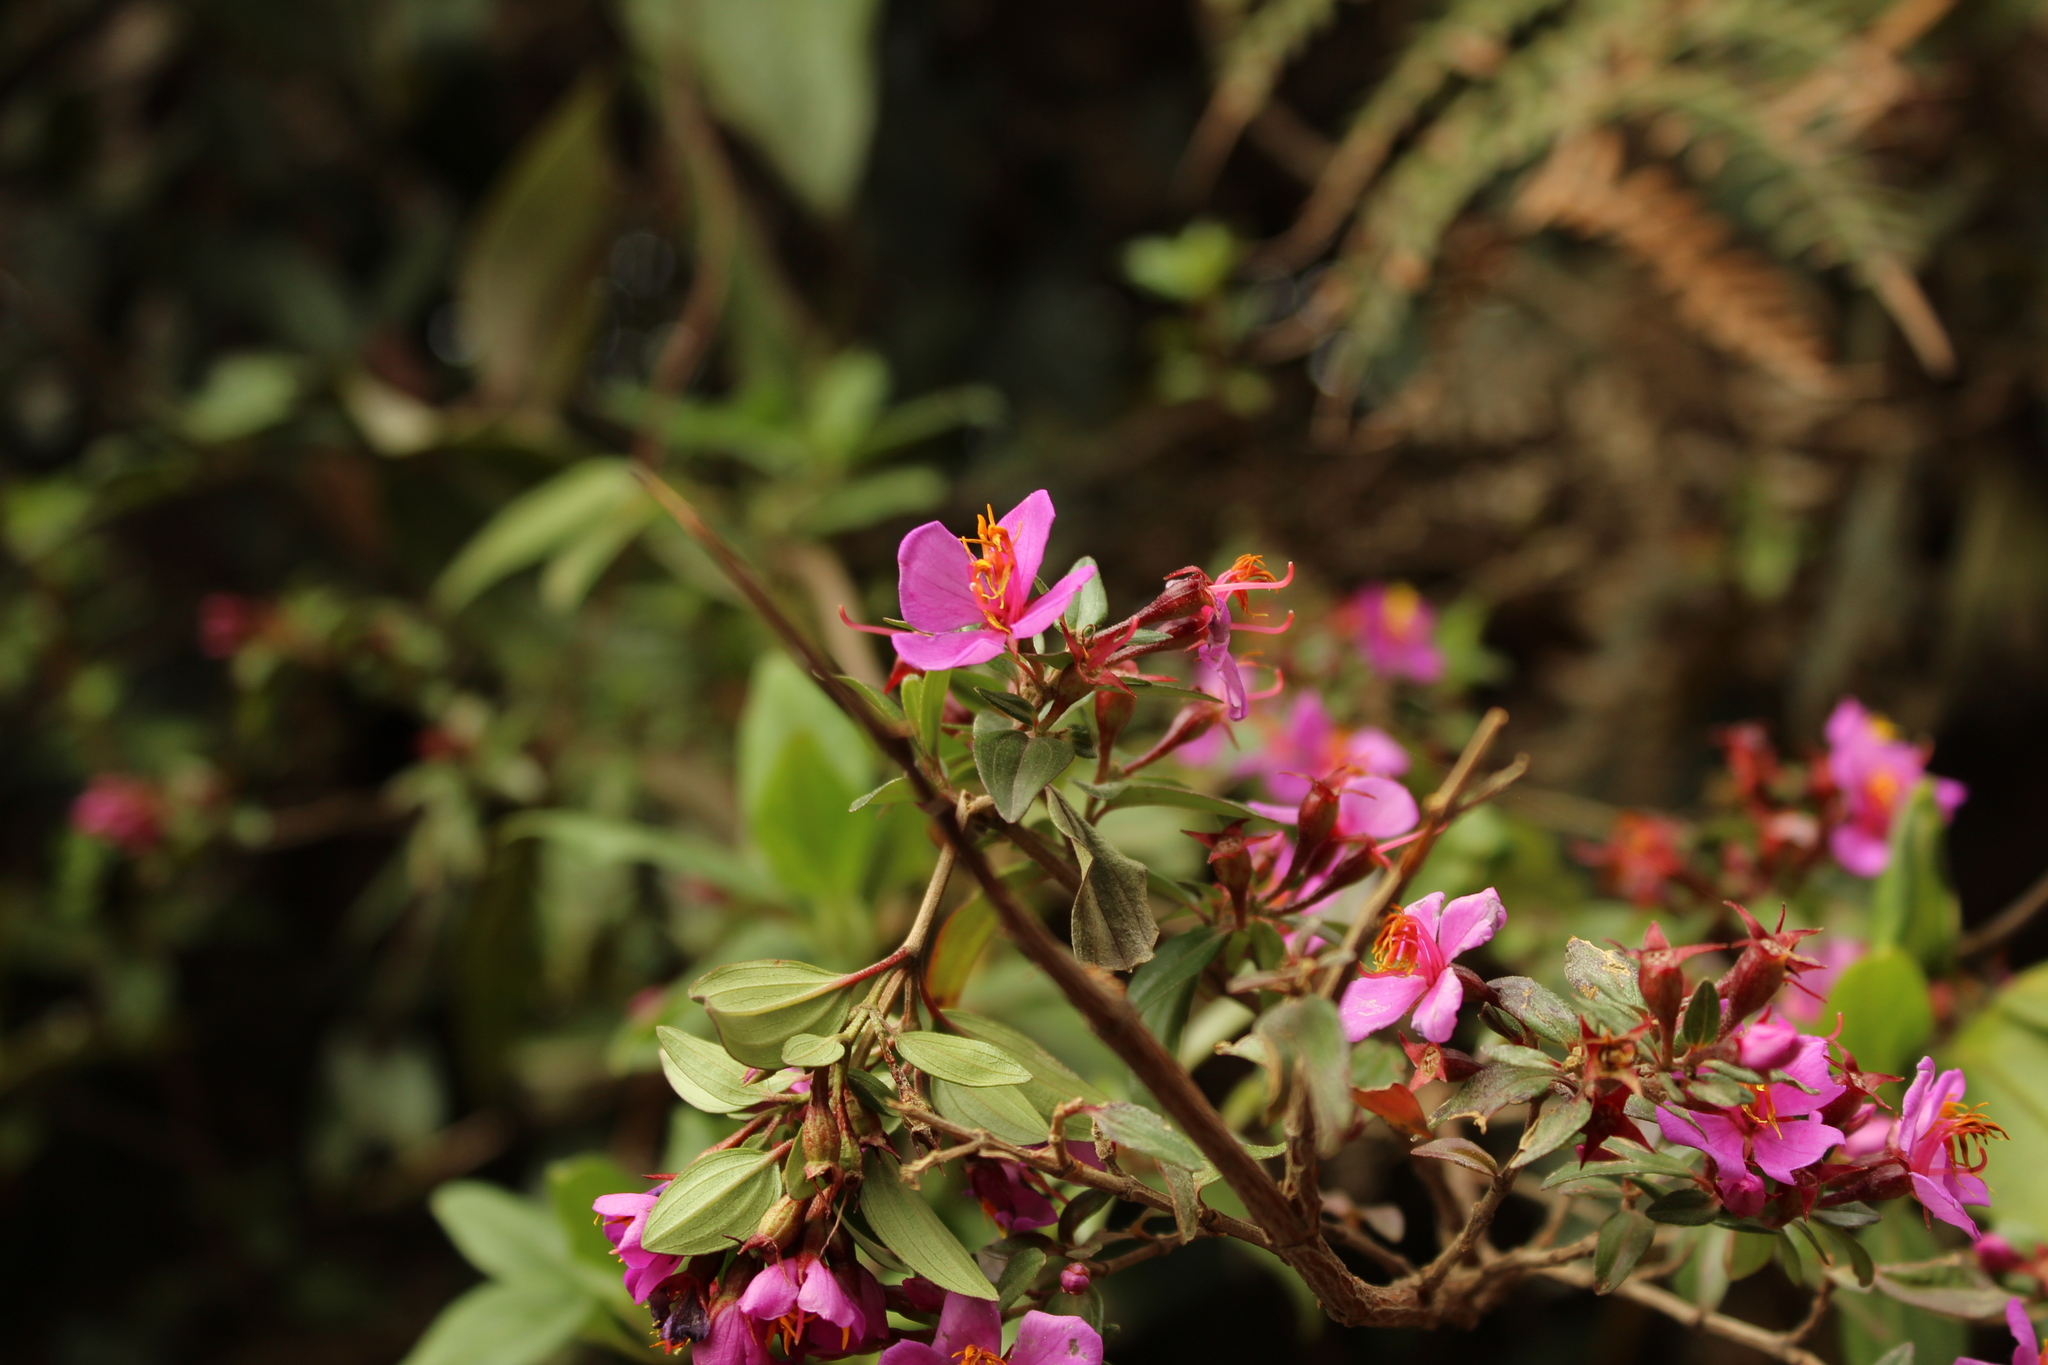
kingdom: Plantae
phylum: Tracheophyta
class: Magnoliopsida
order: Myrtales
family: Melastomataceae
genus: Monochaetum
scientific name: Monochaetum myrtoideum
